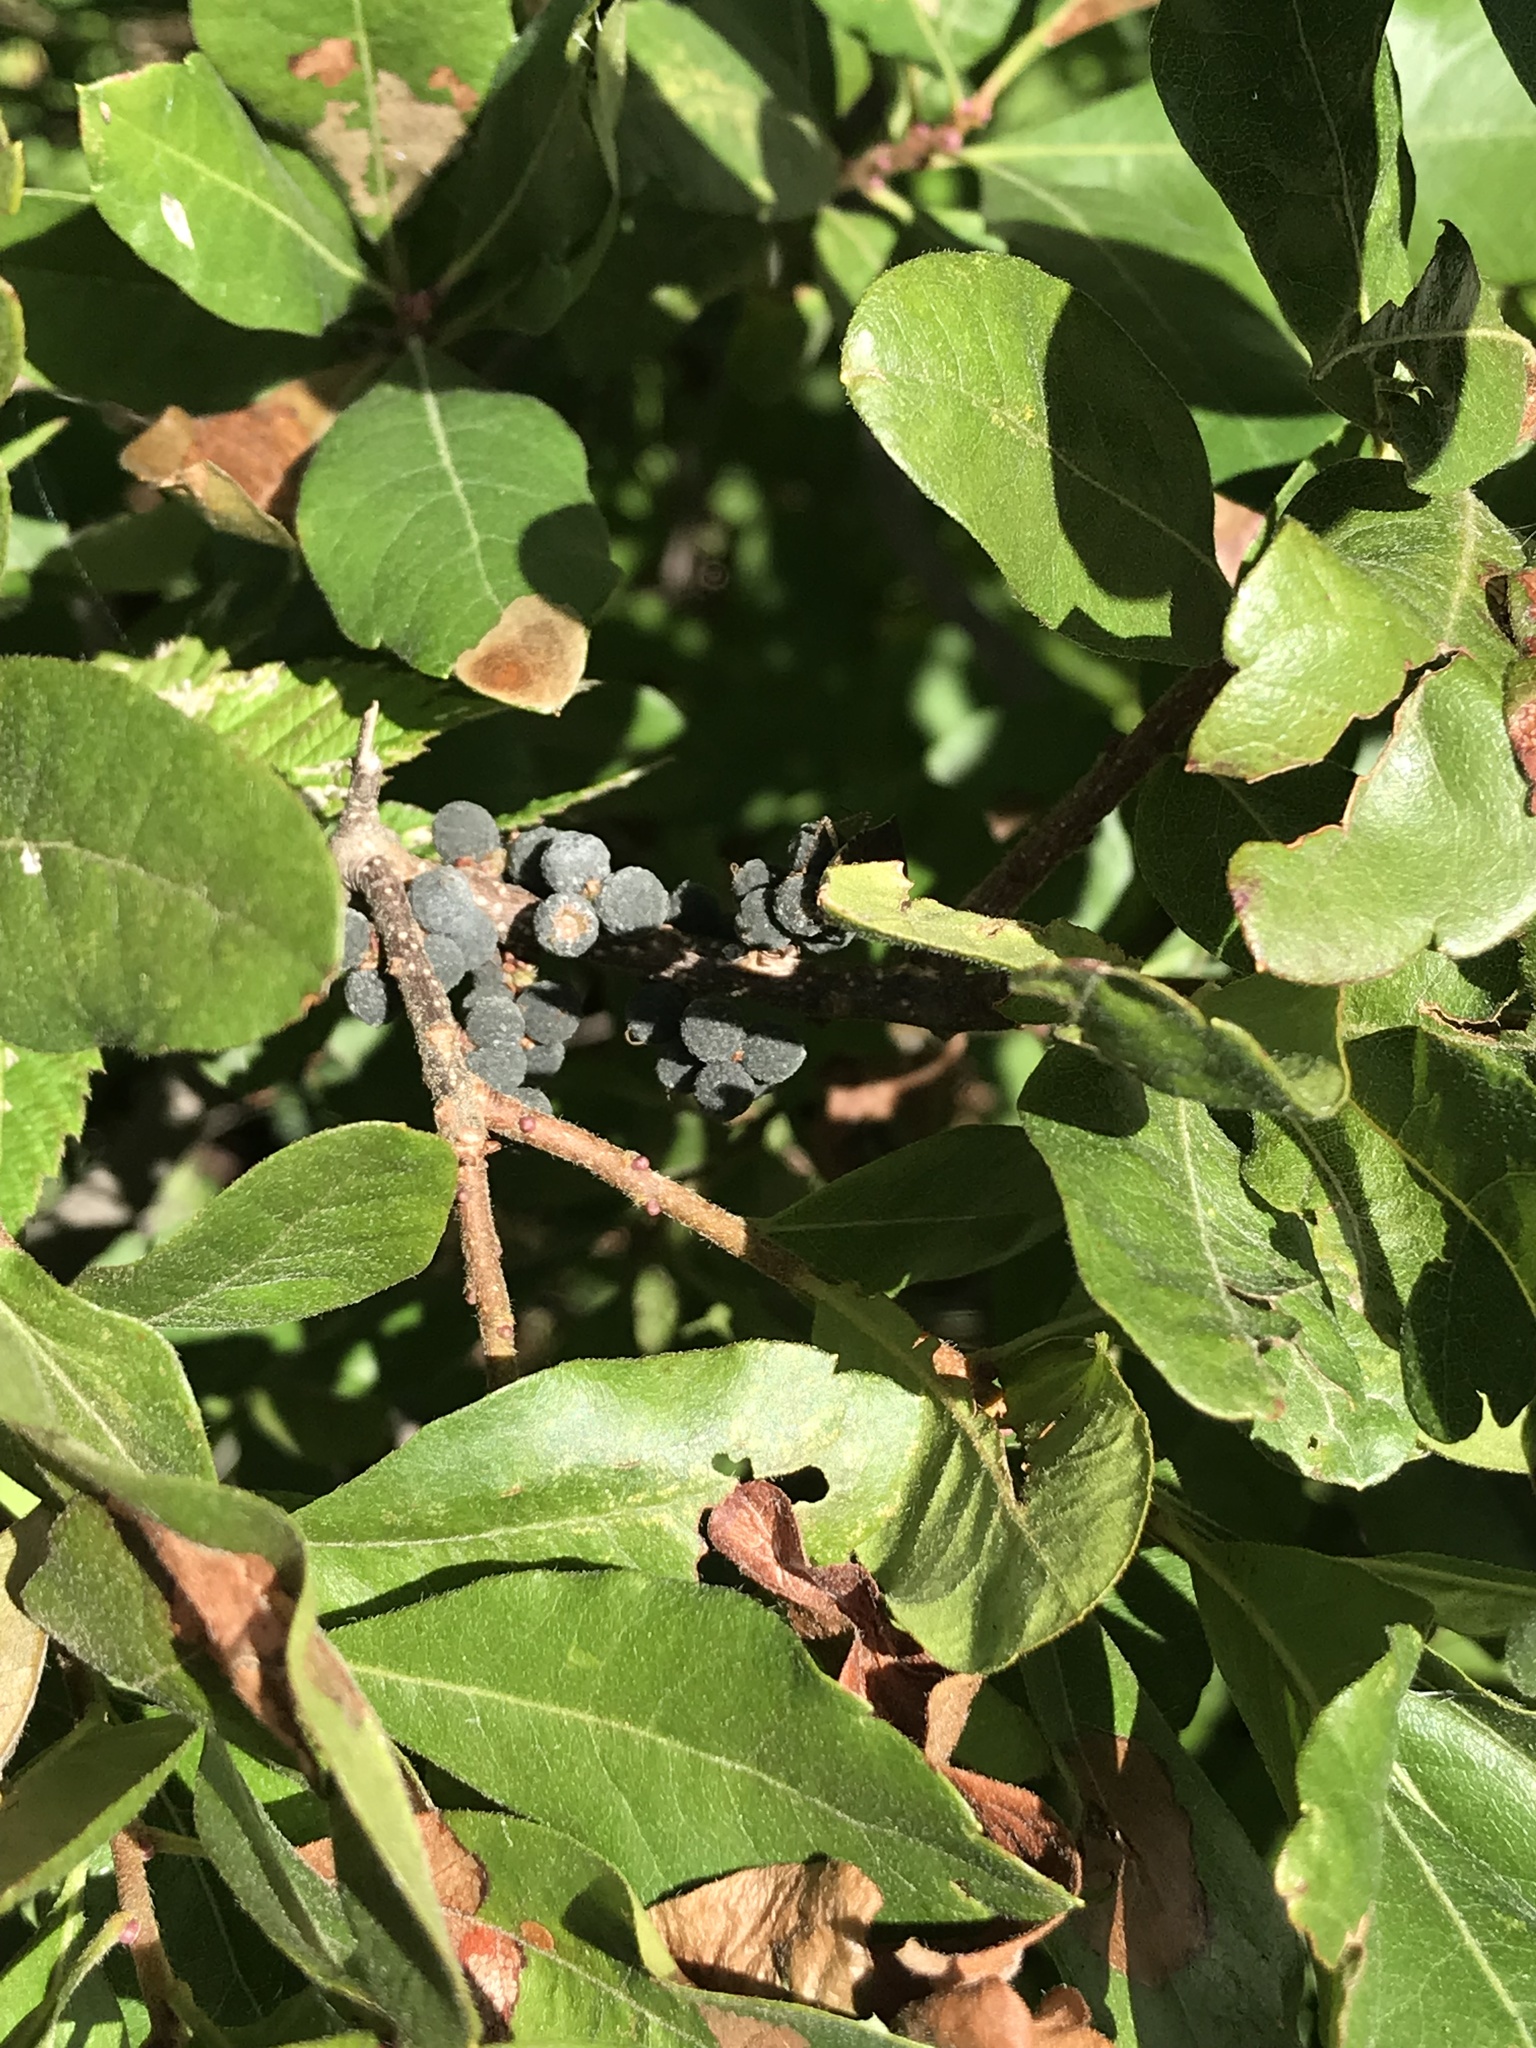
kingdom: Plantae
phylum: Tracheophyta
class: Magnoliopsida
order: Fagales
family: Myricaceae
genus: Morella
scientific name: Morella pensylvanica
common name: Northern bayberry
